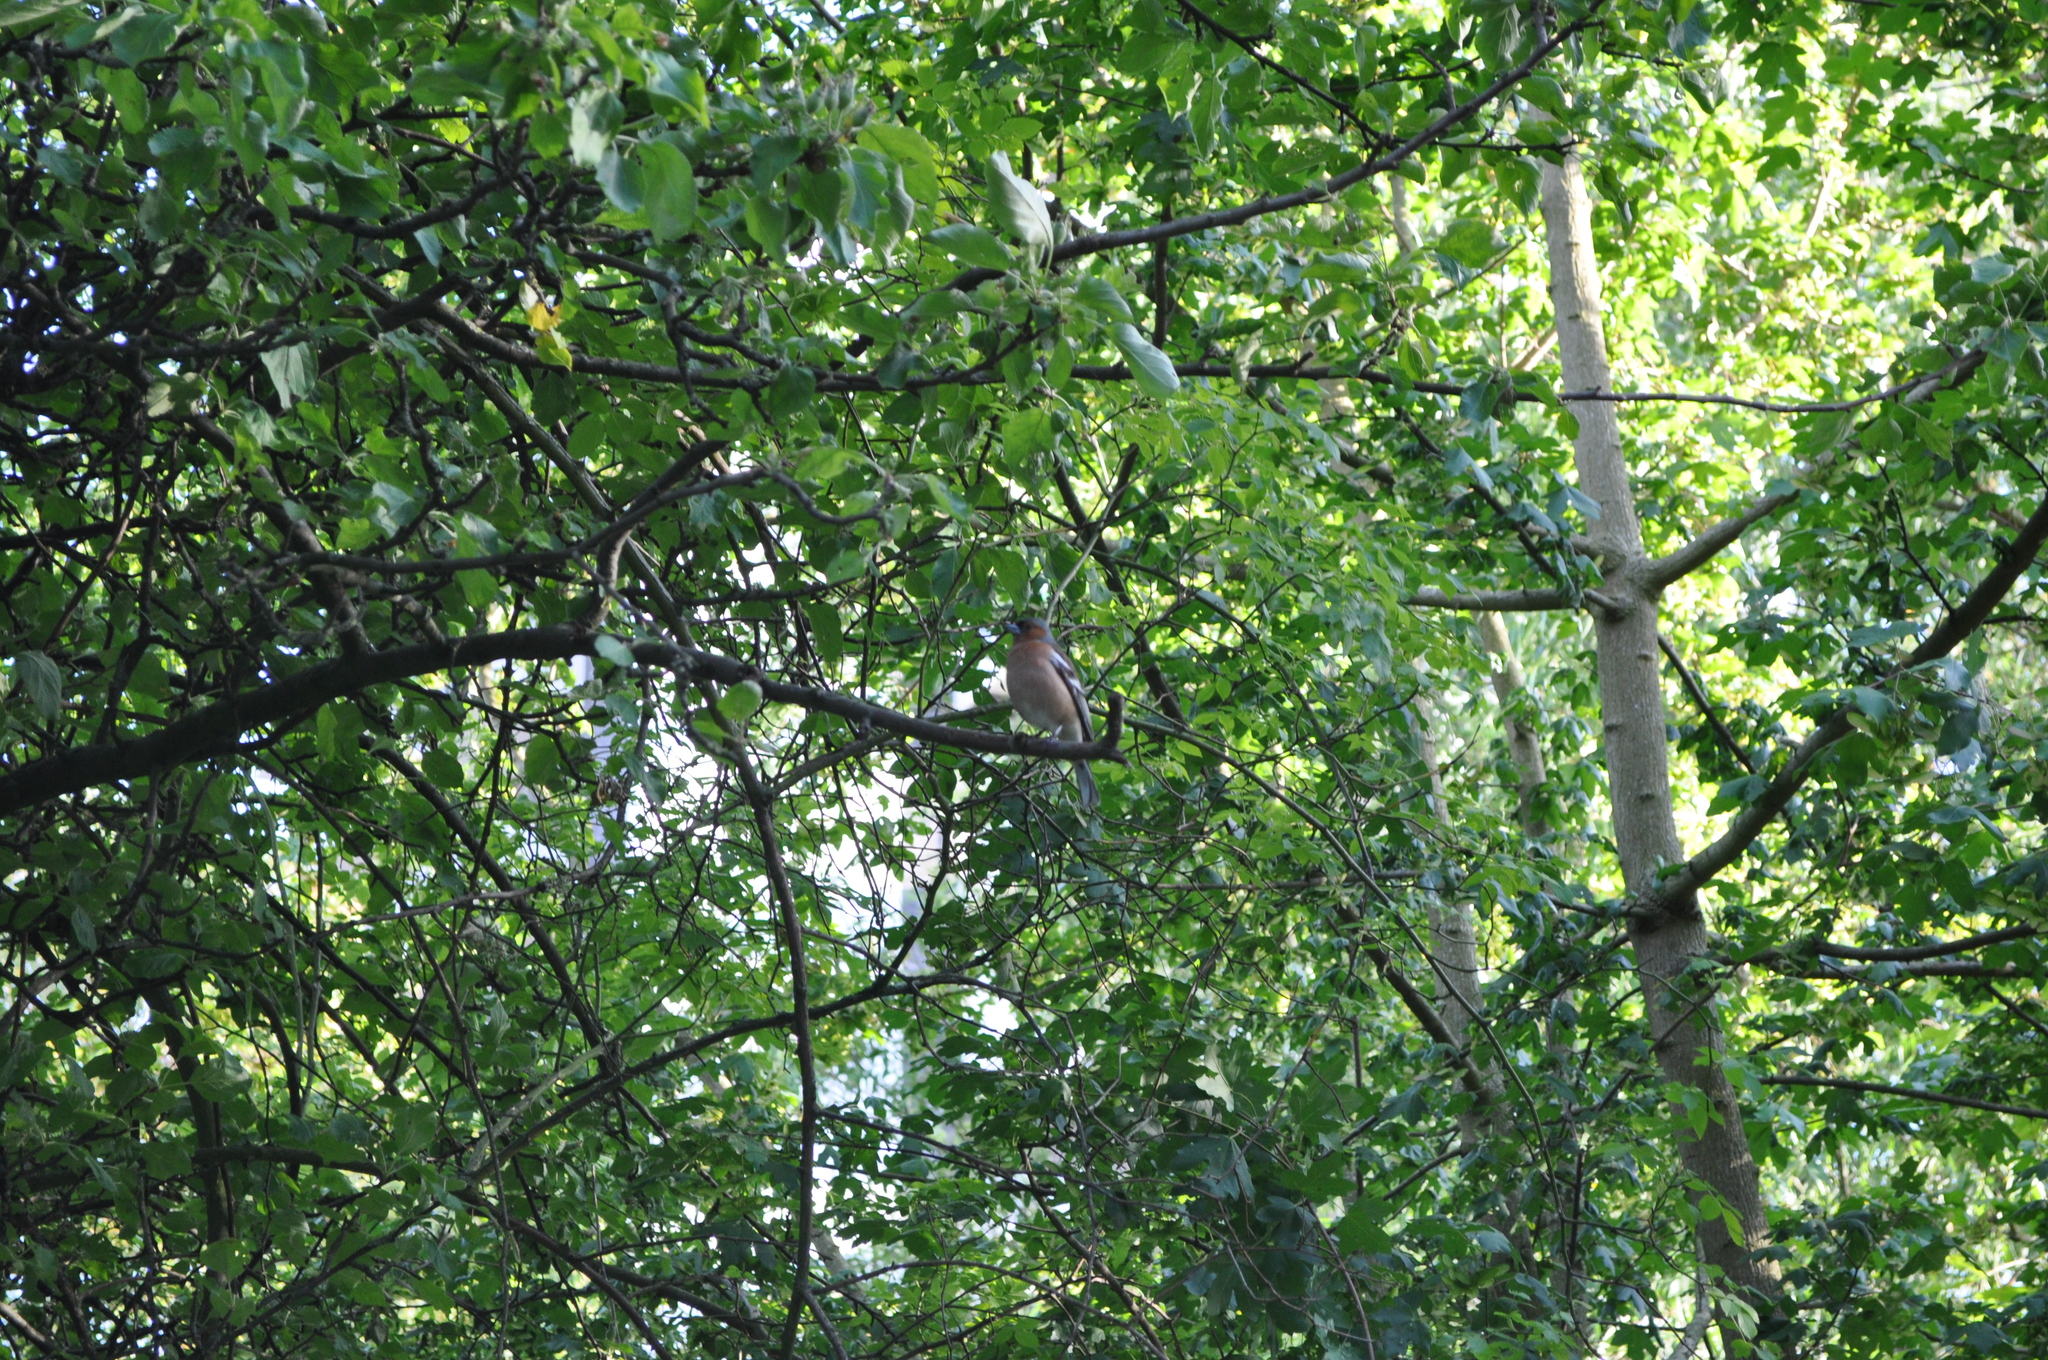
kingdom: Animalia
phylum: Chordata
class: Aves
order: Passeriformes
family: Fringillidae
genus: Fringilla
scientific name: Fringilla coelebs
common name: Common chaffinch
